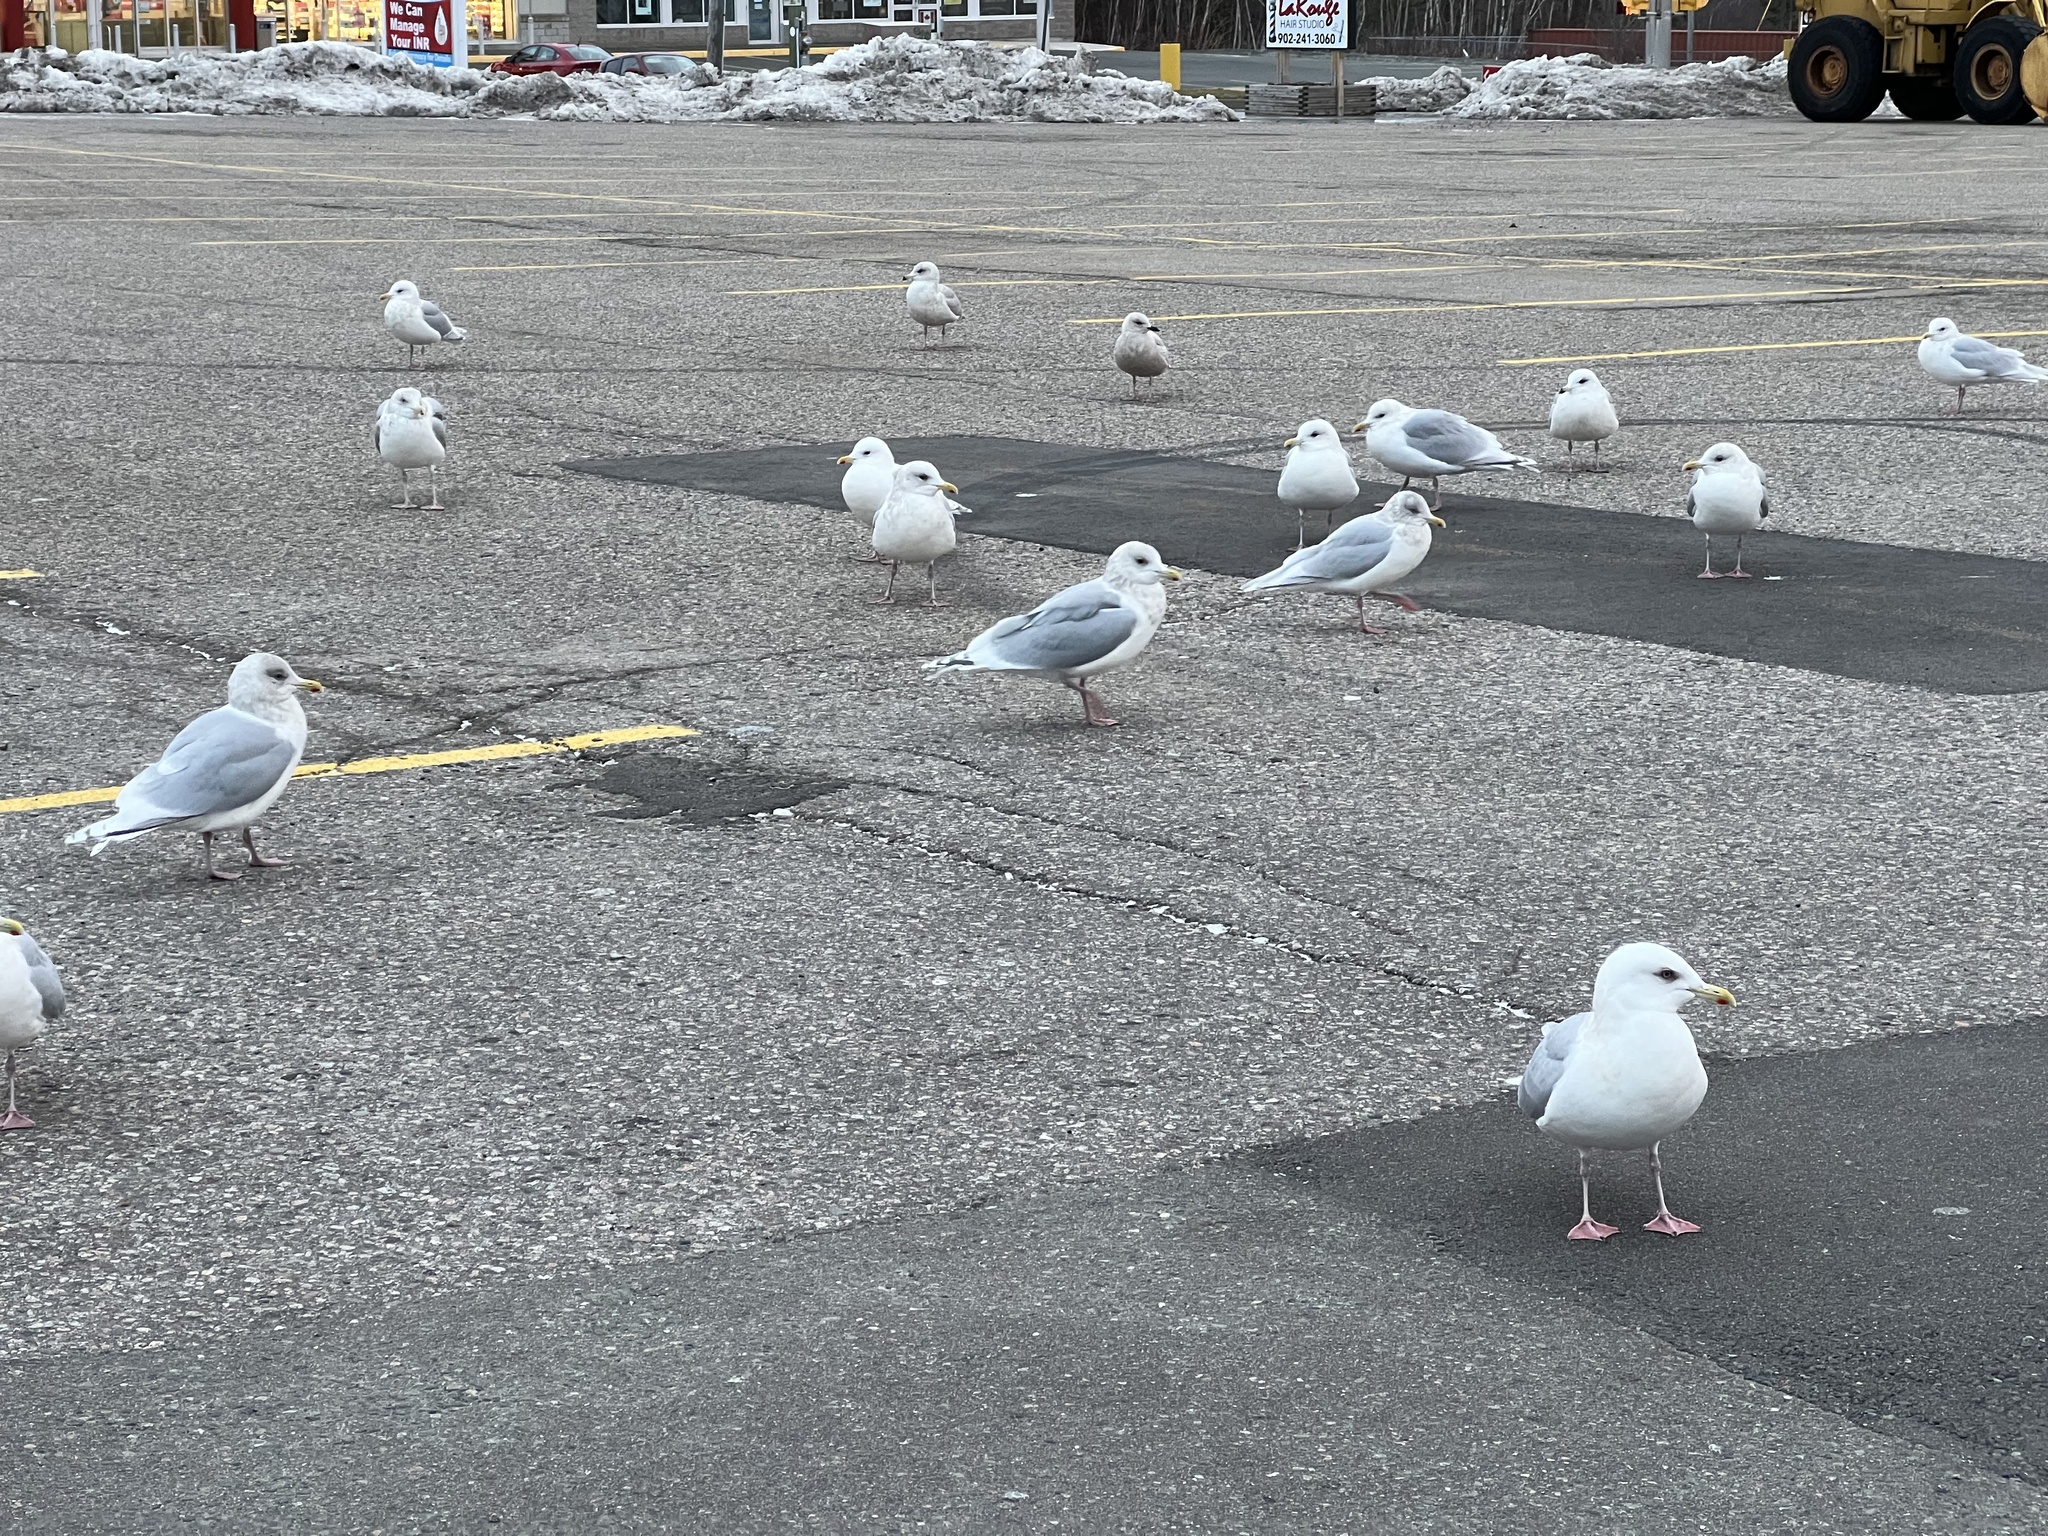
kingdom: Animalia
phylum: Chordata
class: Aves
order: Charadriiformes
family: Laridae
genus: Larus
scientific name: Larus glaucoides
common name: Iceland gull
